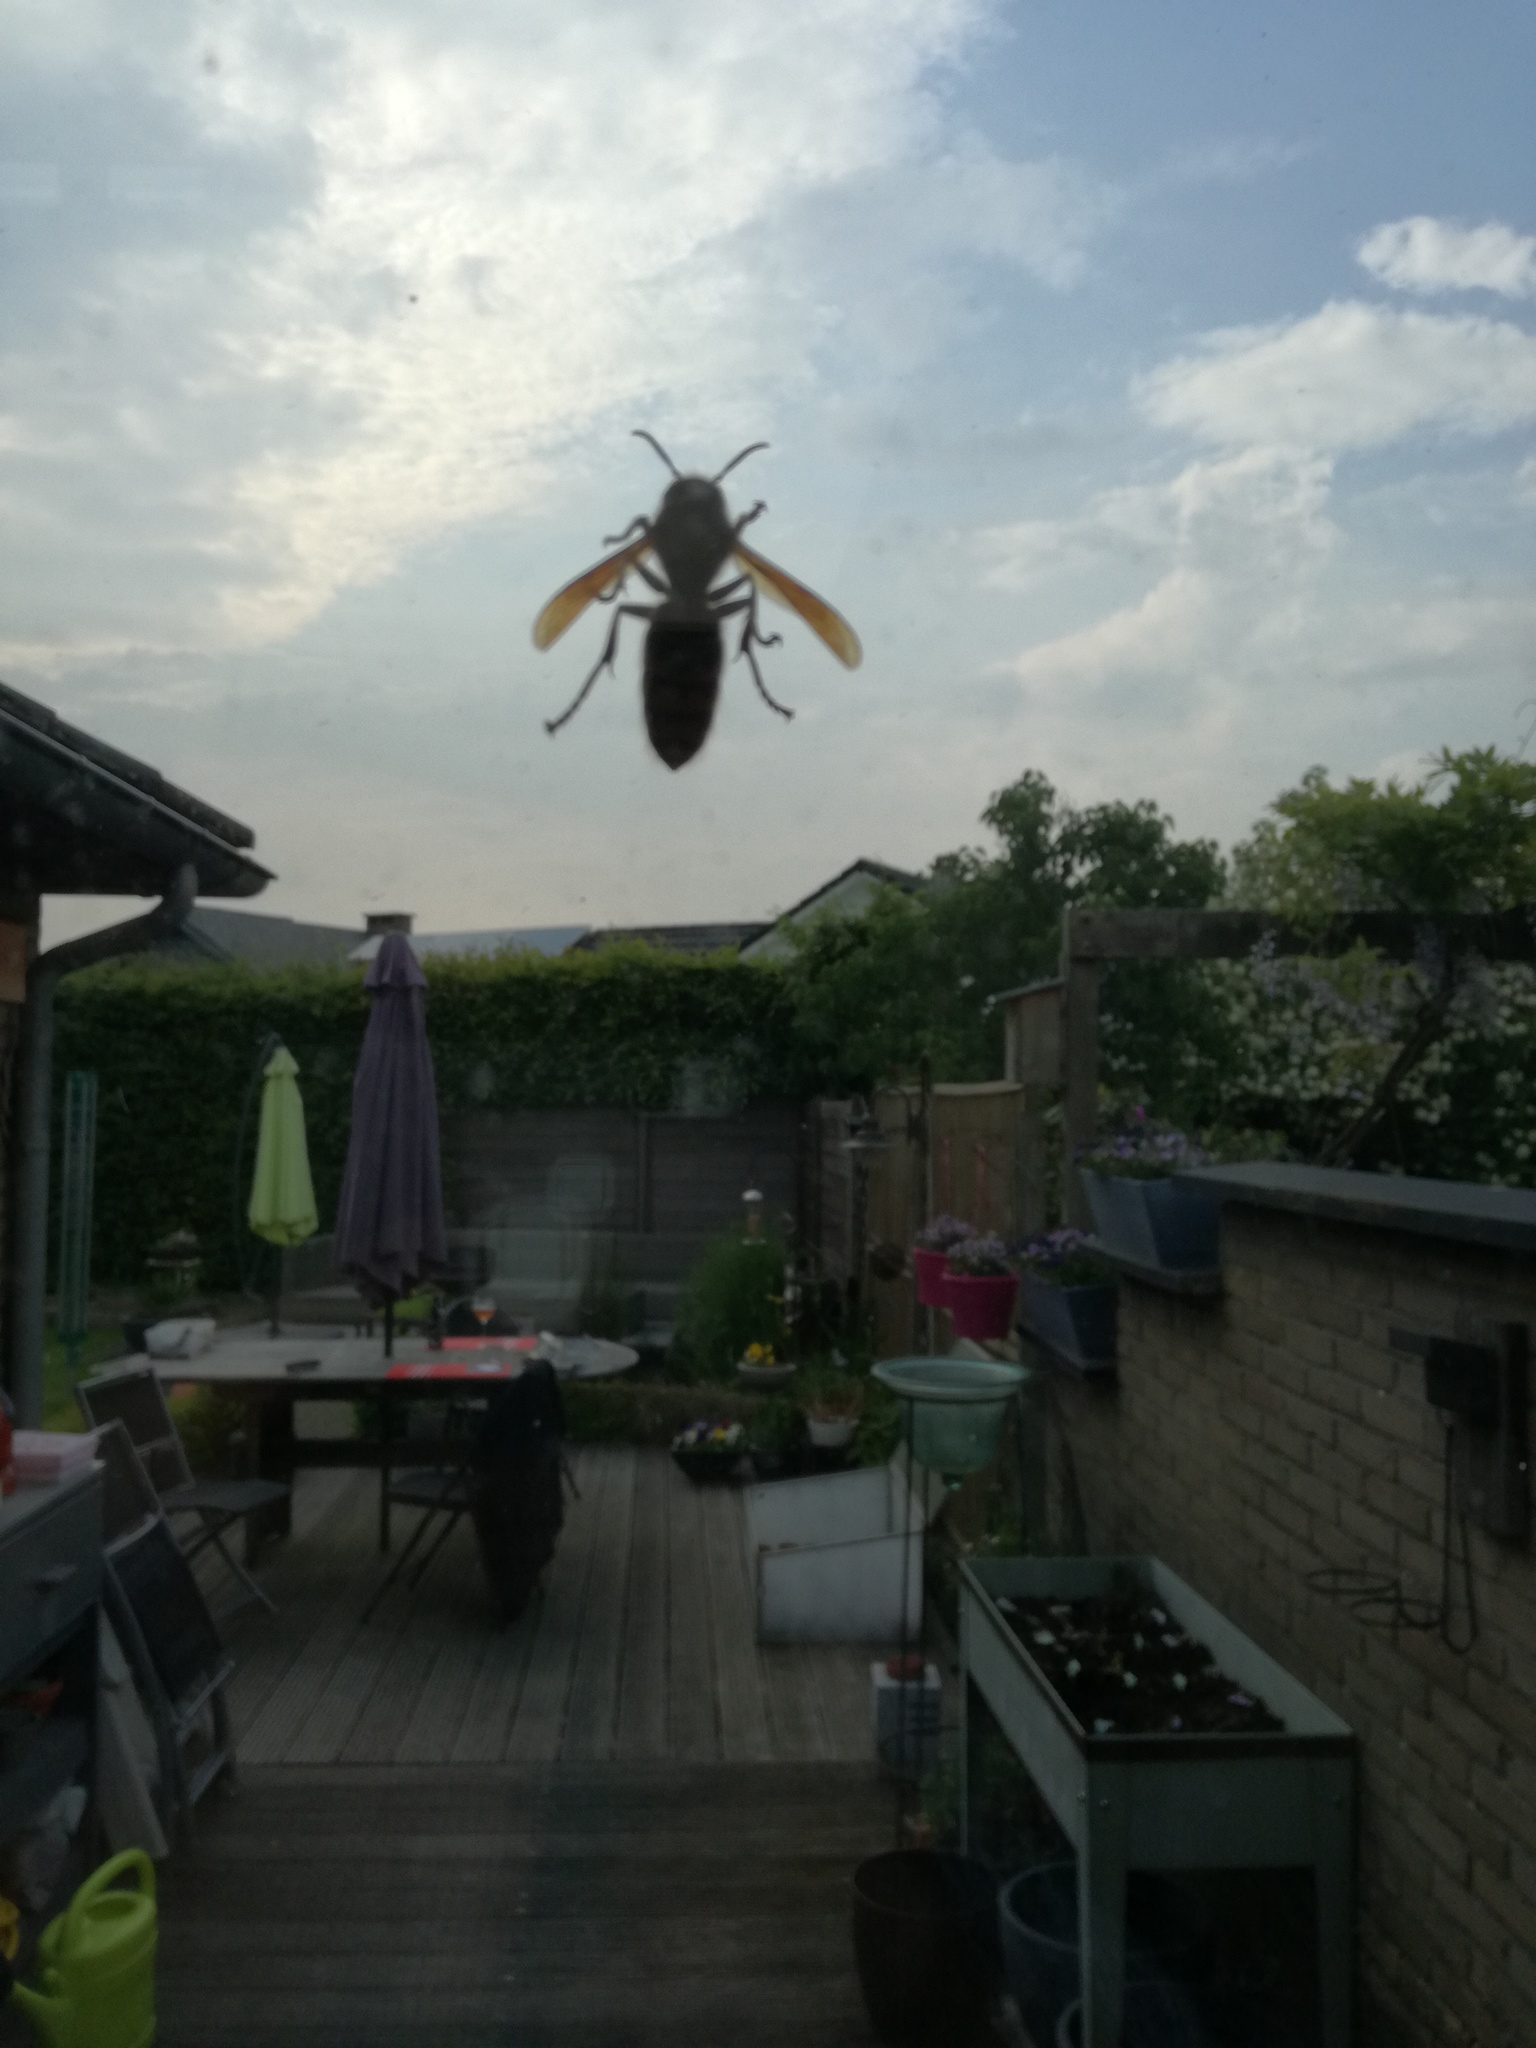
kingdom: Animalia
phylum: Arthropoda
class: Insecta
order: Hymenoptera
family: Vespidae
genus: Vespa
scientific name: Vespa
